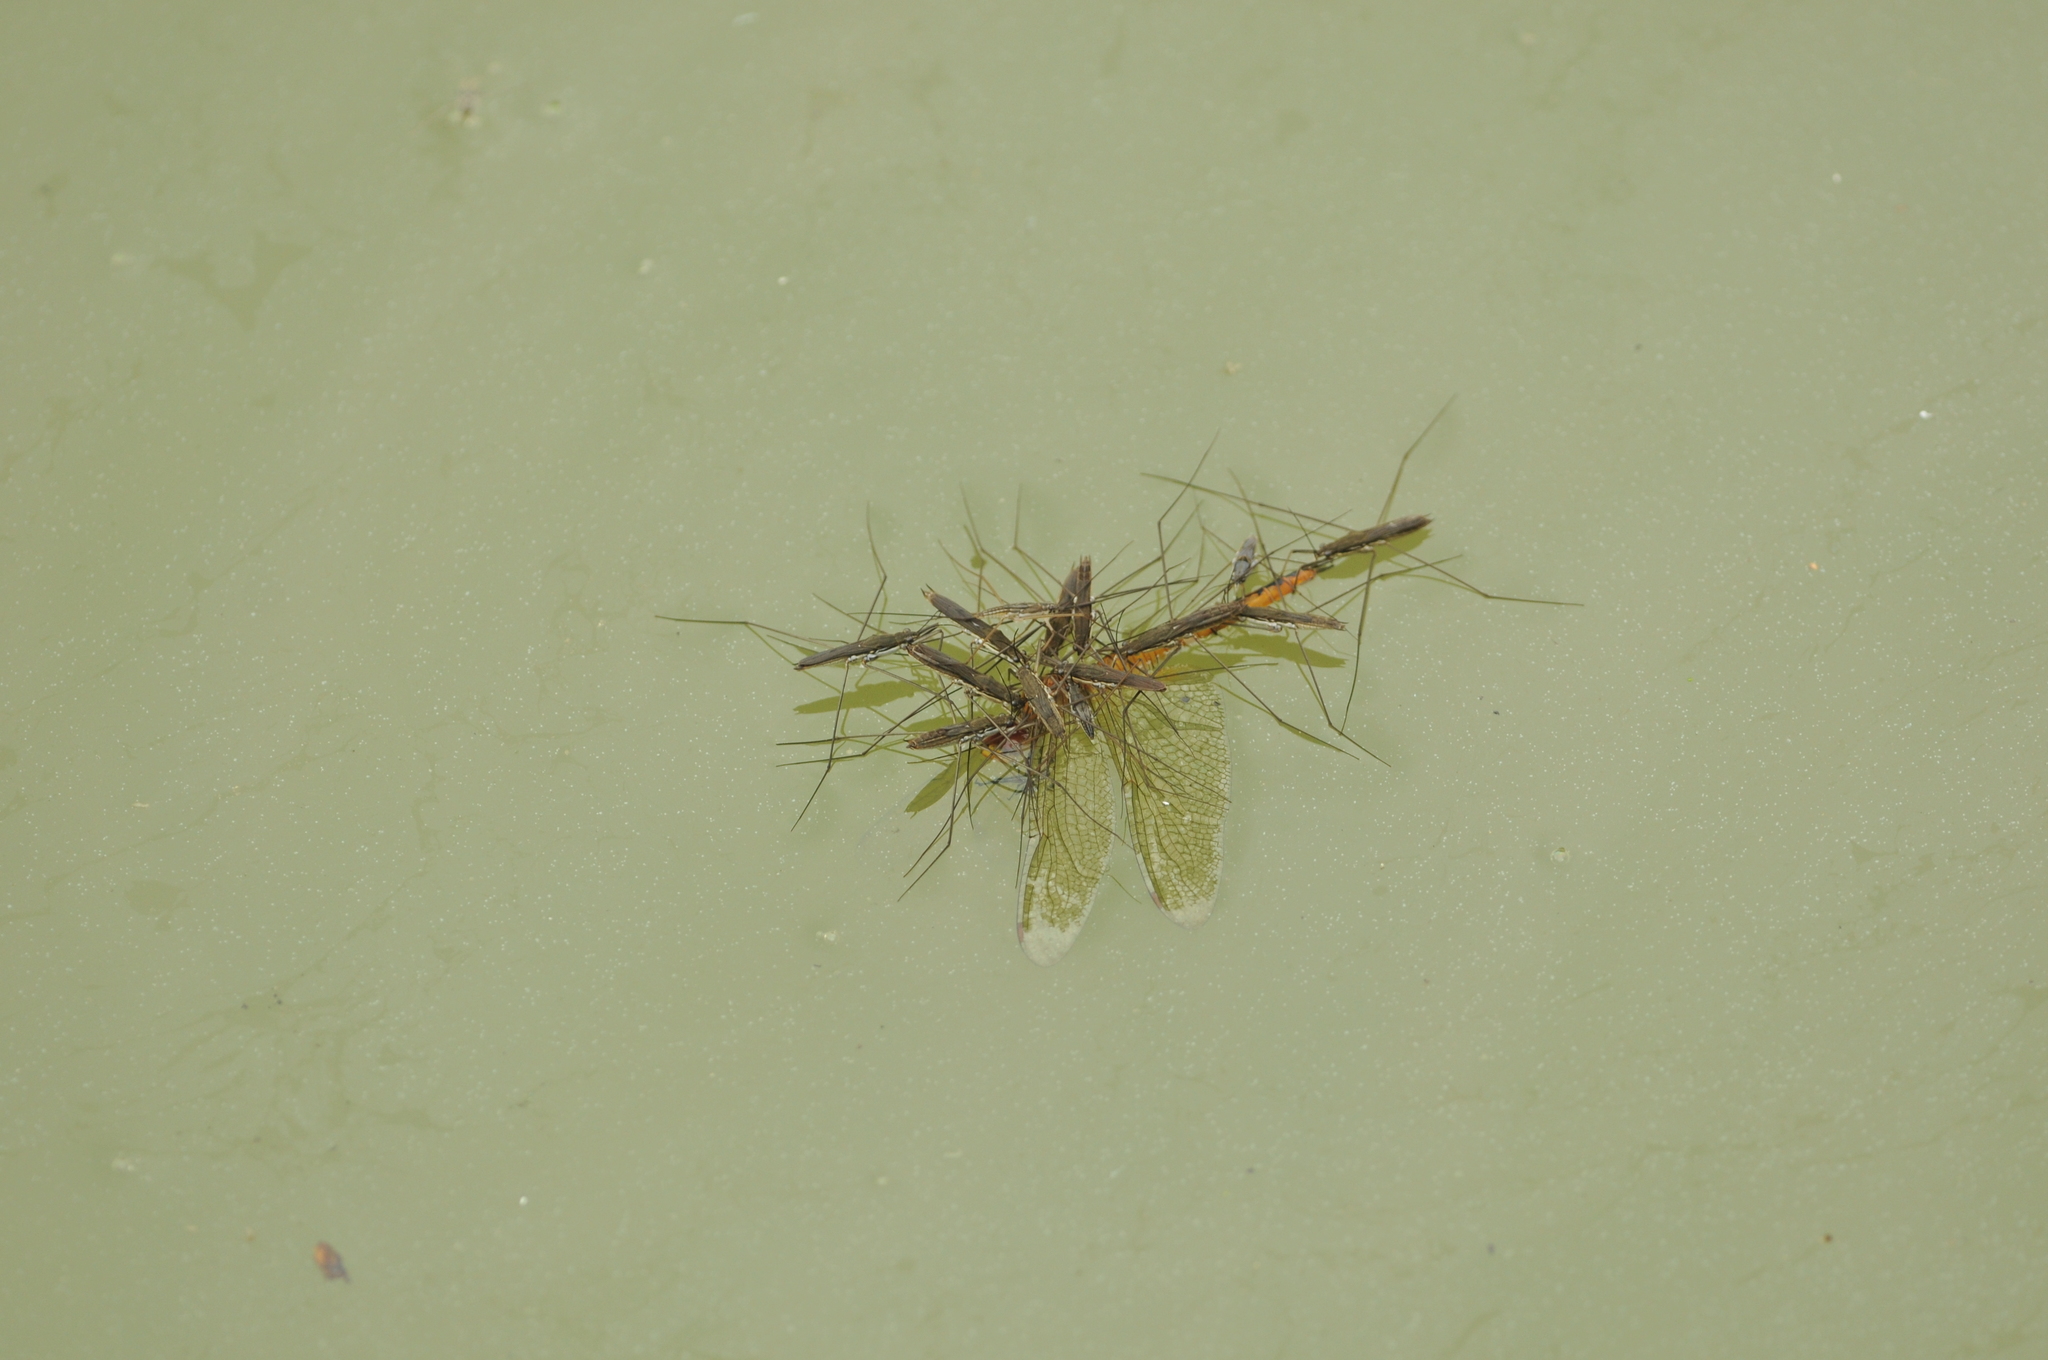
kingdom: Animalia
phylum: Arthropoda
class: Insecta
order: Hemiptera
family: Gerridae
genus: Aquarius
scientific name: Aquarius paludum
